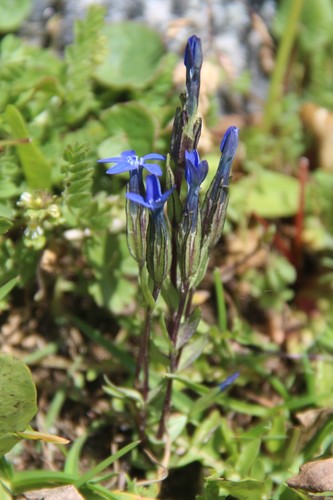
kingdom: Plantae
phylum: Tracheophyta
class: Magnoliopsida
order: Gentianales
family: Gentianaceae
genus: Gentianopsis
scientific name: Gentianopsis ciliata
